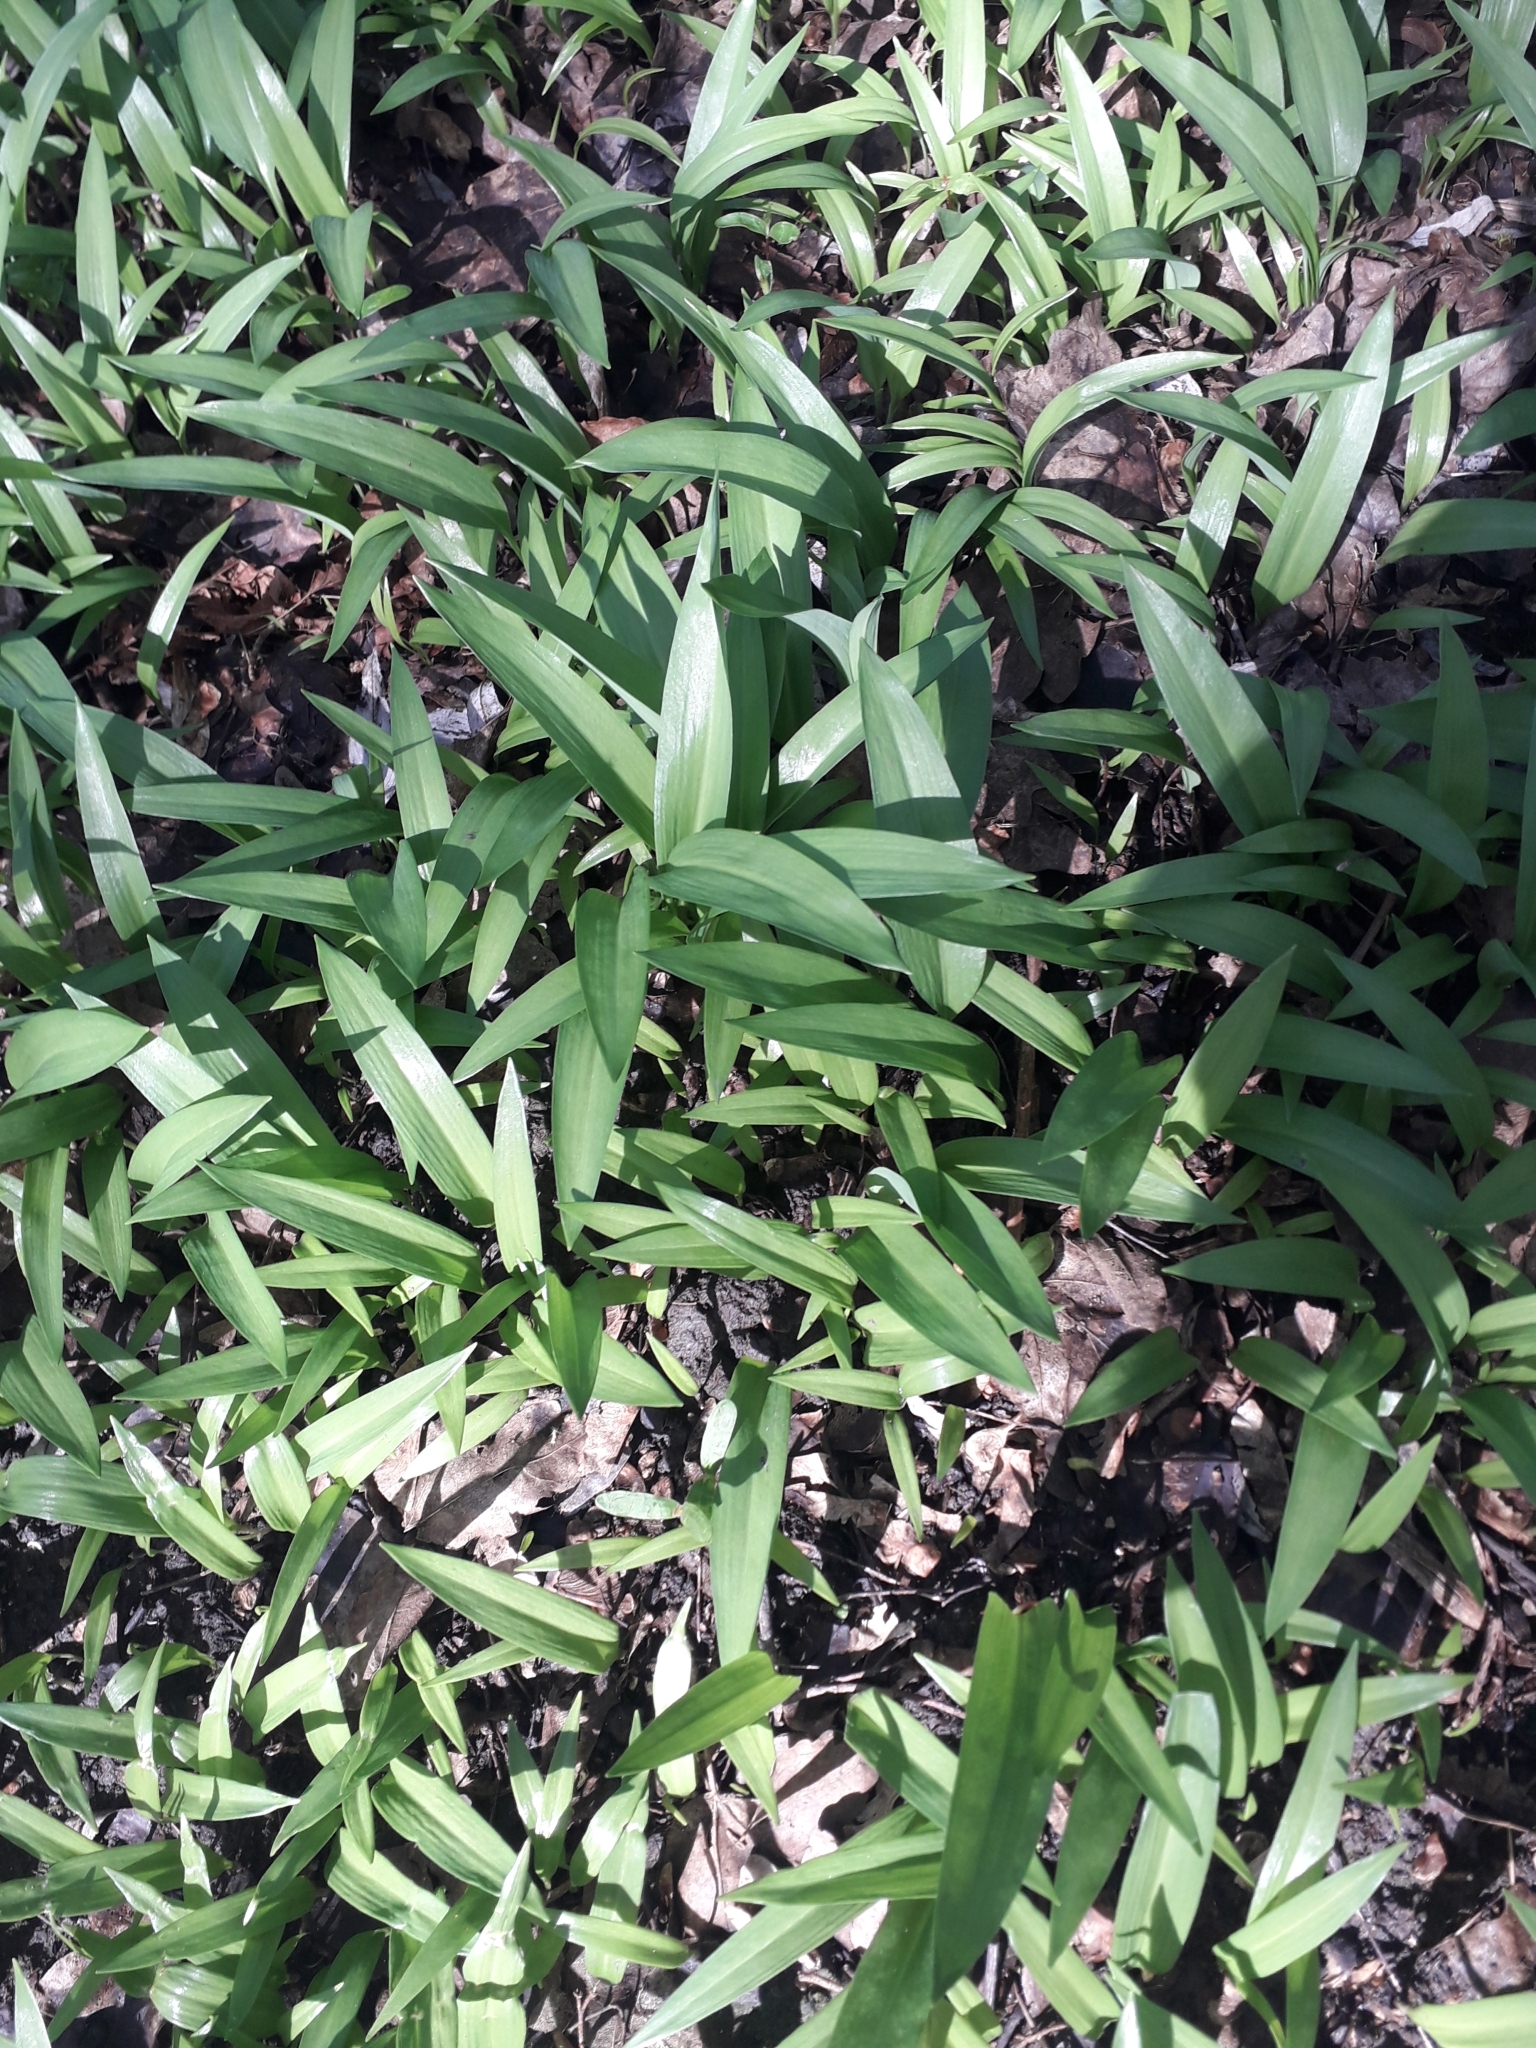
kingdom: Plantae
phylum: Tracheophyta
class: Liliopsida
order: Asparagales
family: Amaryllidaceae
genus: Allium
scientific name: Allium ursinum
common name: Ramsons
